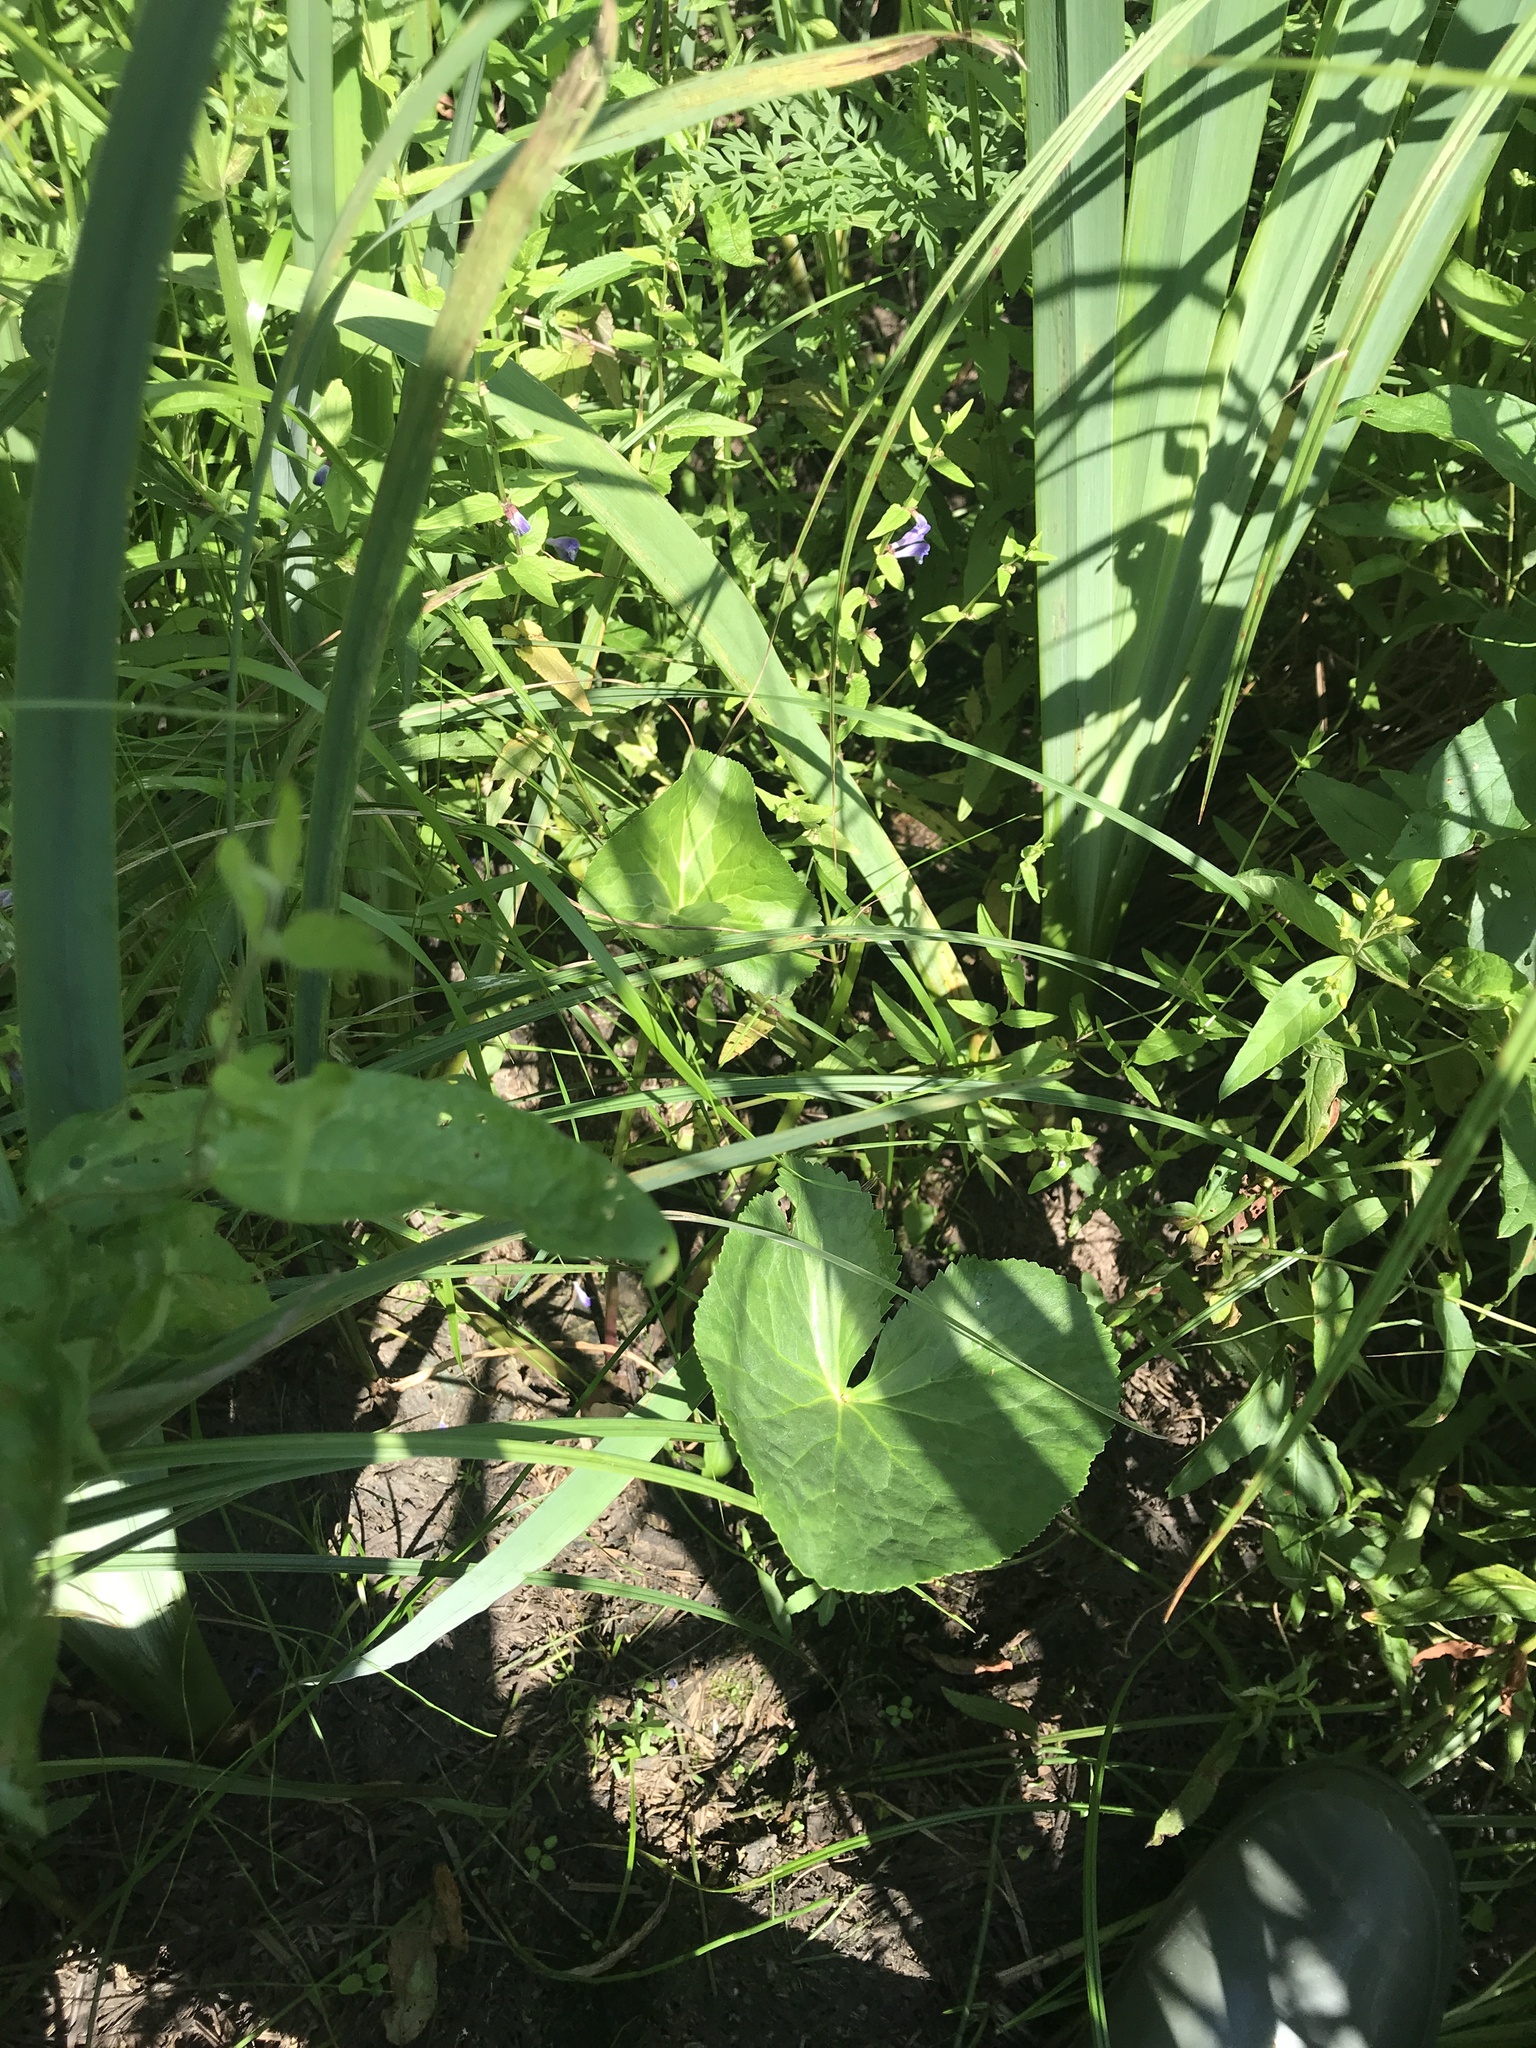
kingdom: Plantae
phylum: Tracheophyta
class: Magnoliopsida
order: Ranunculales
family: Ranunculaceae
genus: Caltha
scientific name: Caltha palustris
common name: Marsh marigold
